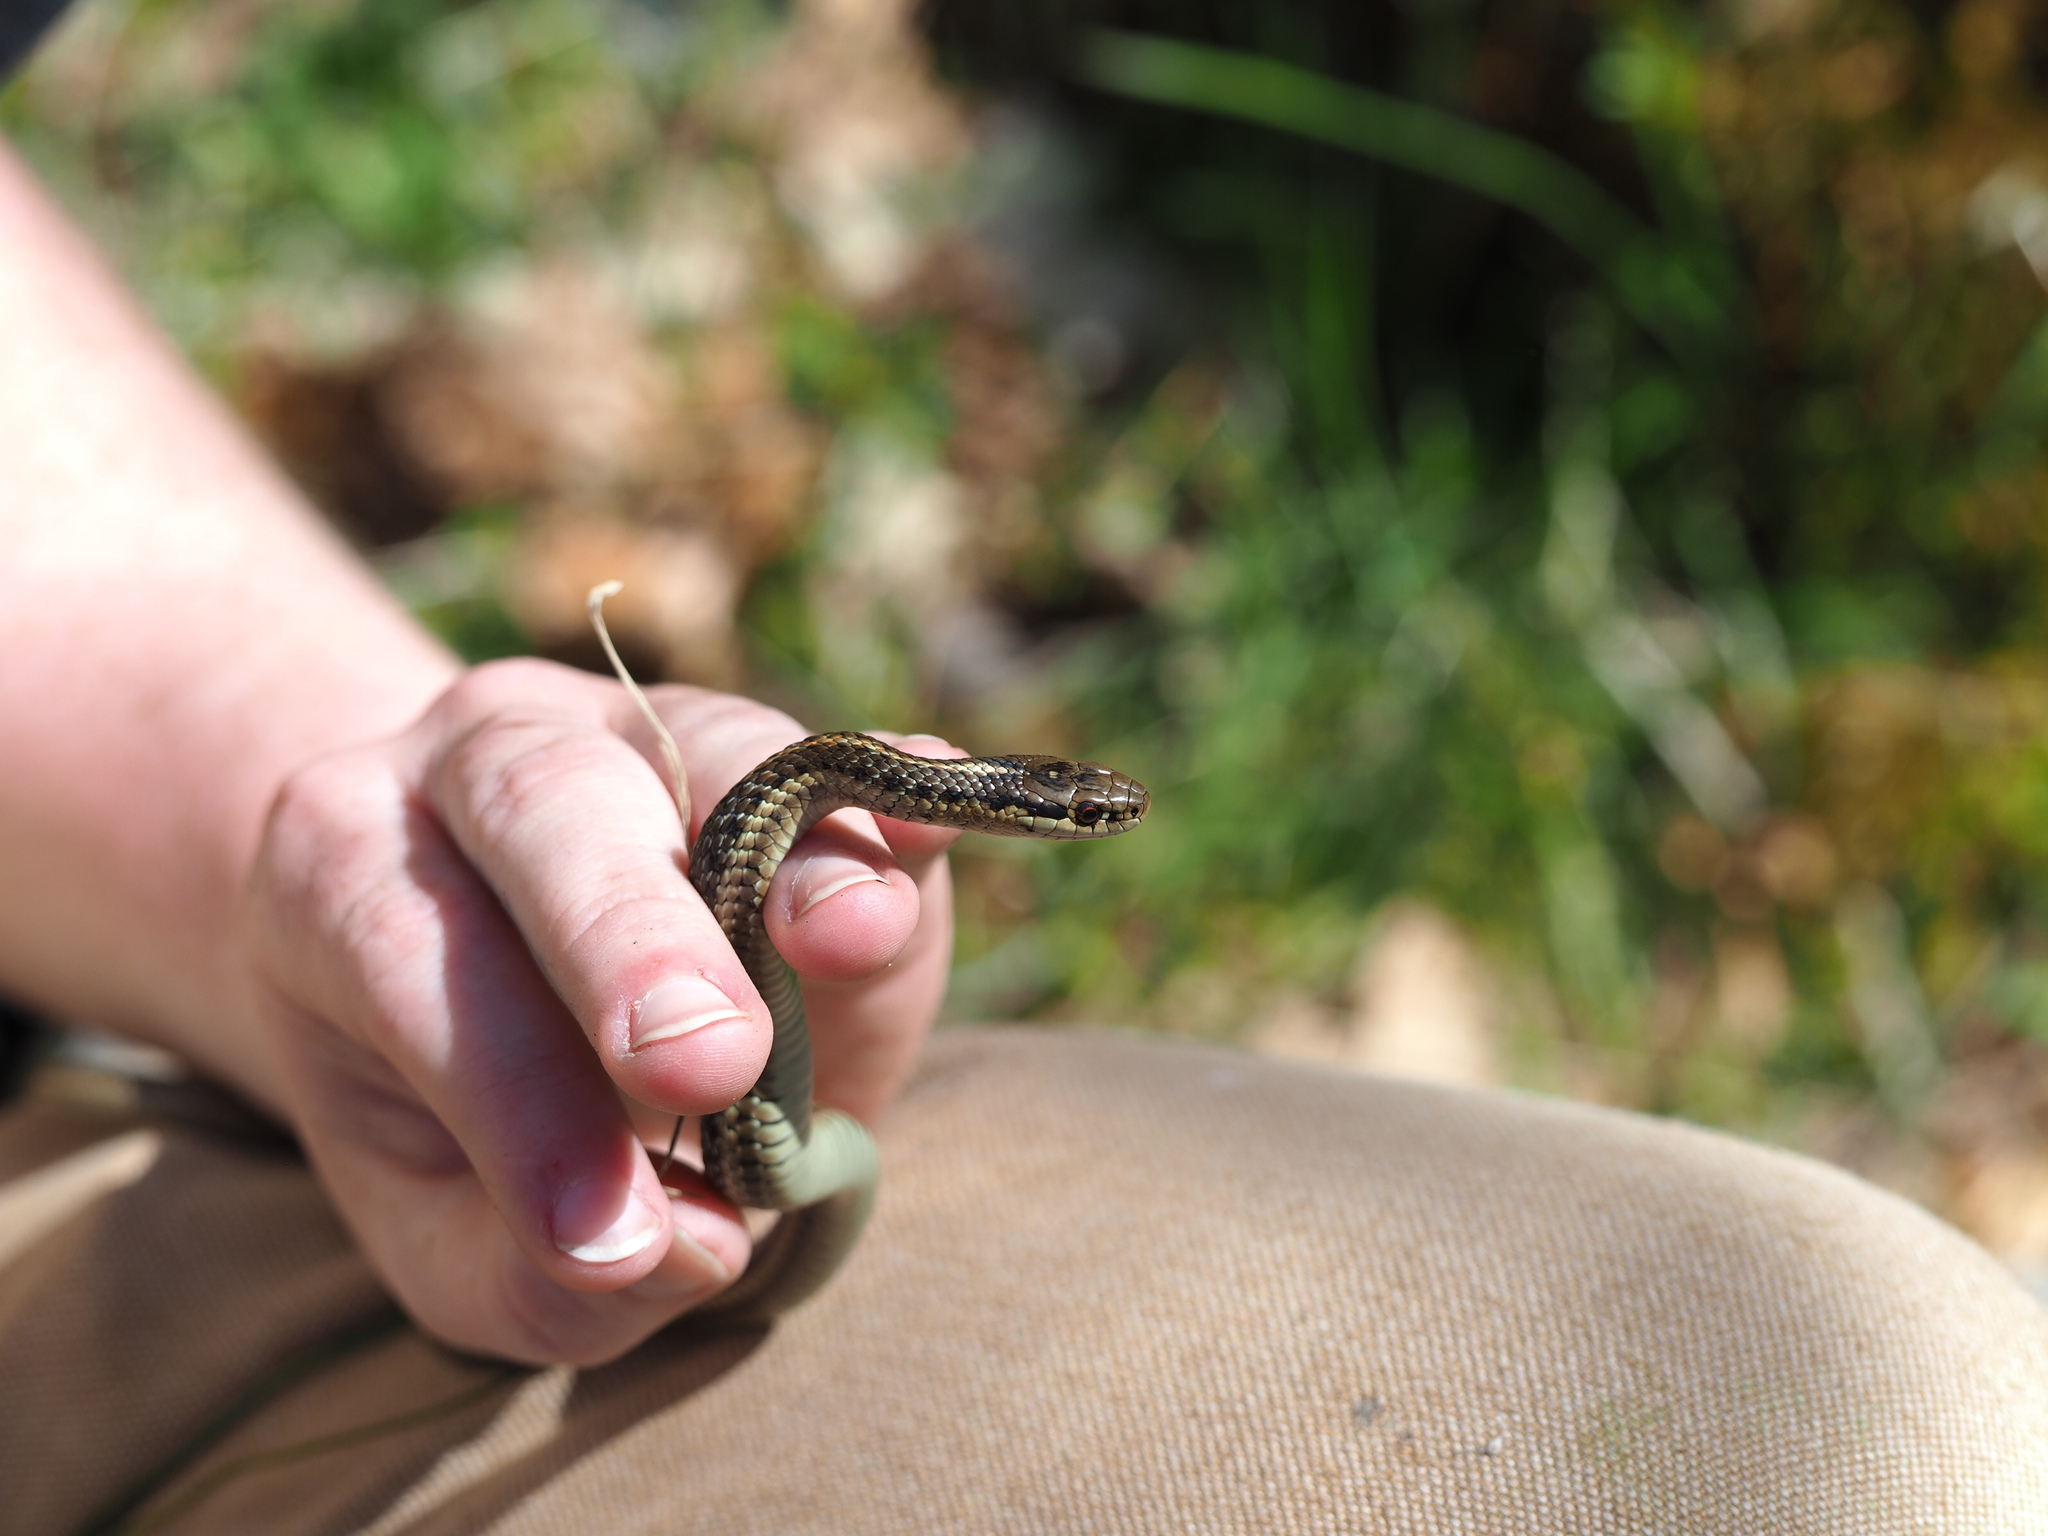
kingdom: Animalia
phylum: Chordata
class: Squamata
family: Colubridae
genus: Thamnophis
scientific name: Thamnophis ordinoides
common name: Northwestern garter snake
